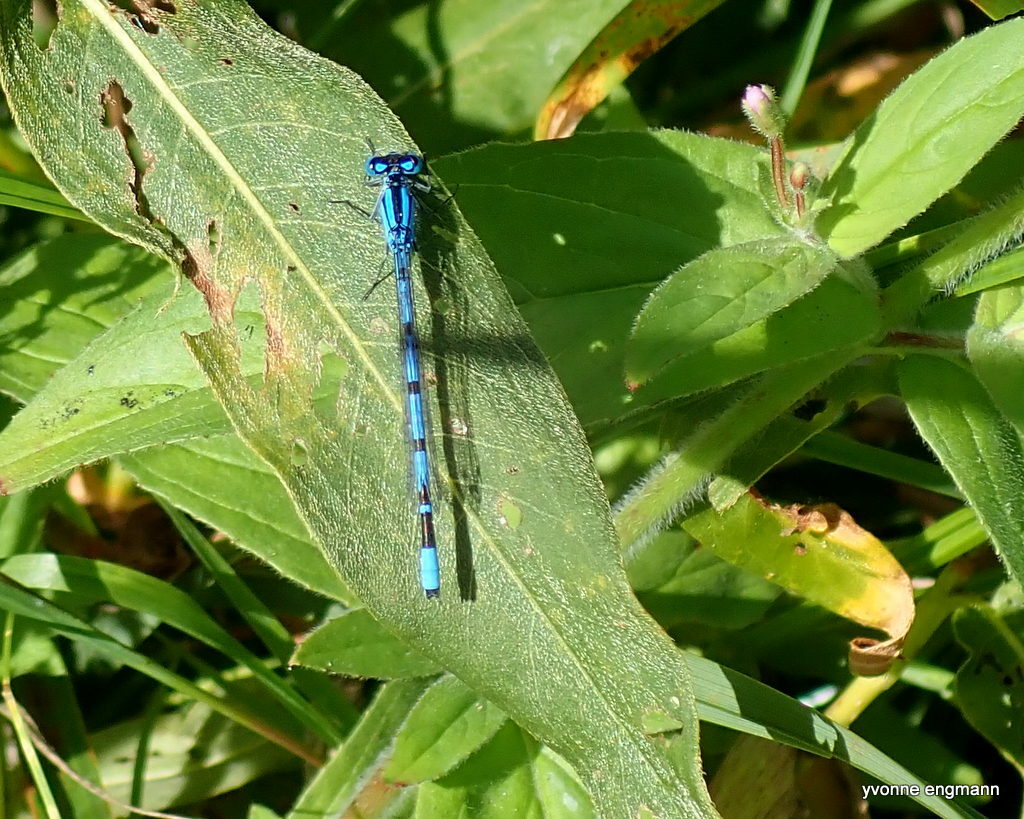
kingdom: Animalia
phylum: Arthropoda
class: Insecta
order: Odonata
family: Coenagrionidae
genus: Enallagma
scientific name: Enallagma cyathigerum
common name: Common blue damselfly
